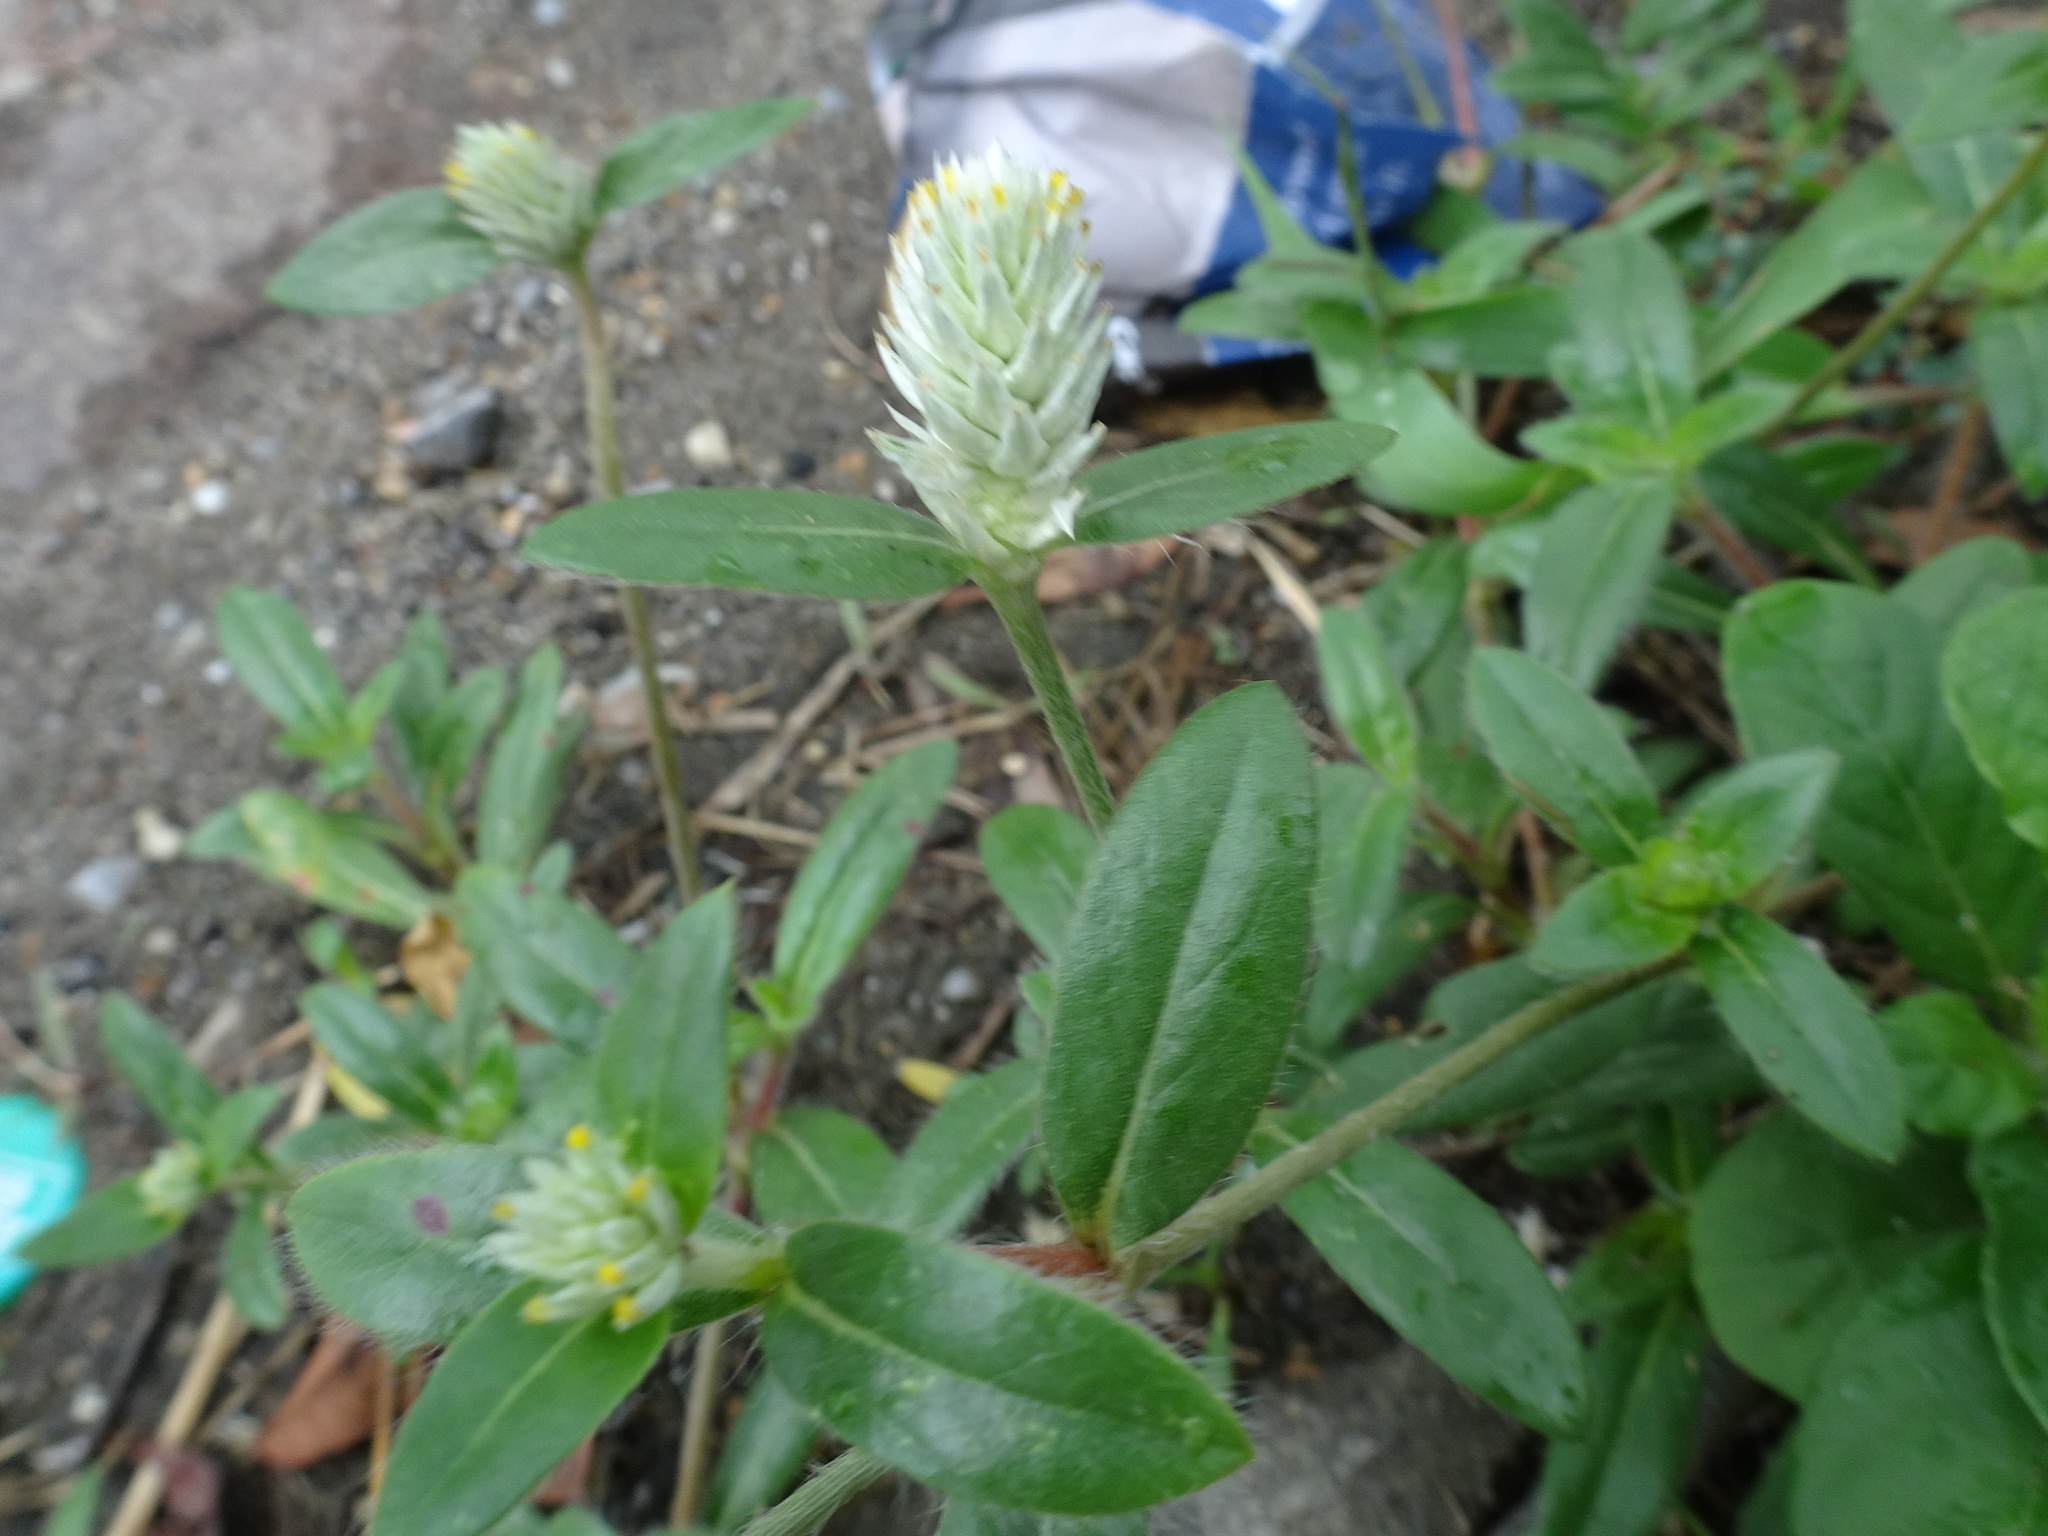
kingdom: Plantae
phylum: Tracheophyta
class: Magnoliopsida
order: Caryophyllales
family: Amaranthaceae
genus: Gomphrena
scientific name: Gomphrena serrata
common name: Arrasa con todo
